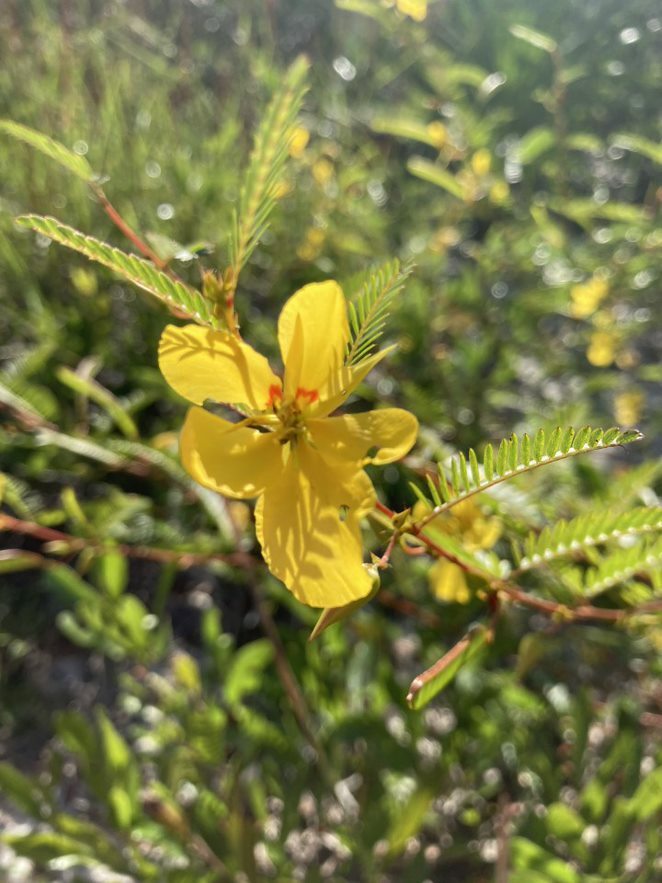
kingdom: Plantae
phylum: Tracheophyta
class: Magnoliopsida
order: Fabales
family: Fabaceae
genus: Chamaecrista
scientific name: Chamaecrista fasciculata
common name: Golden cassia
